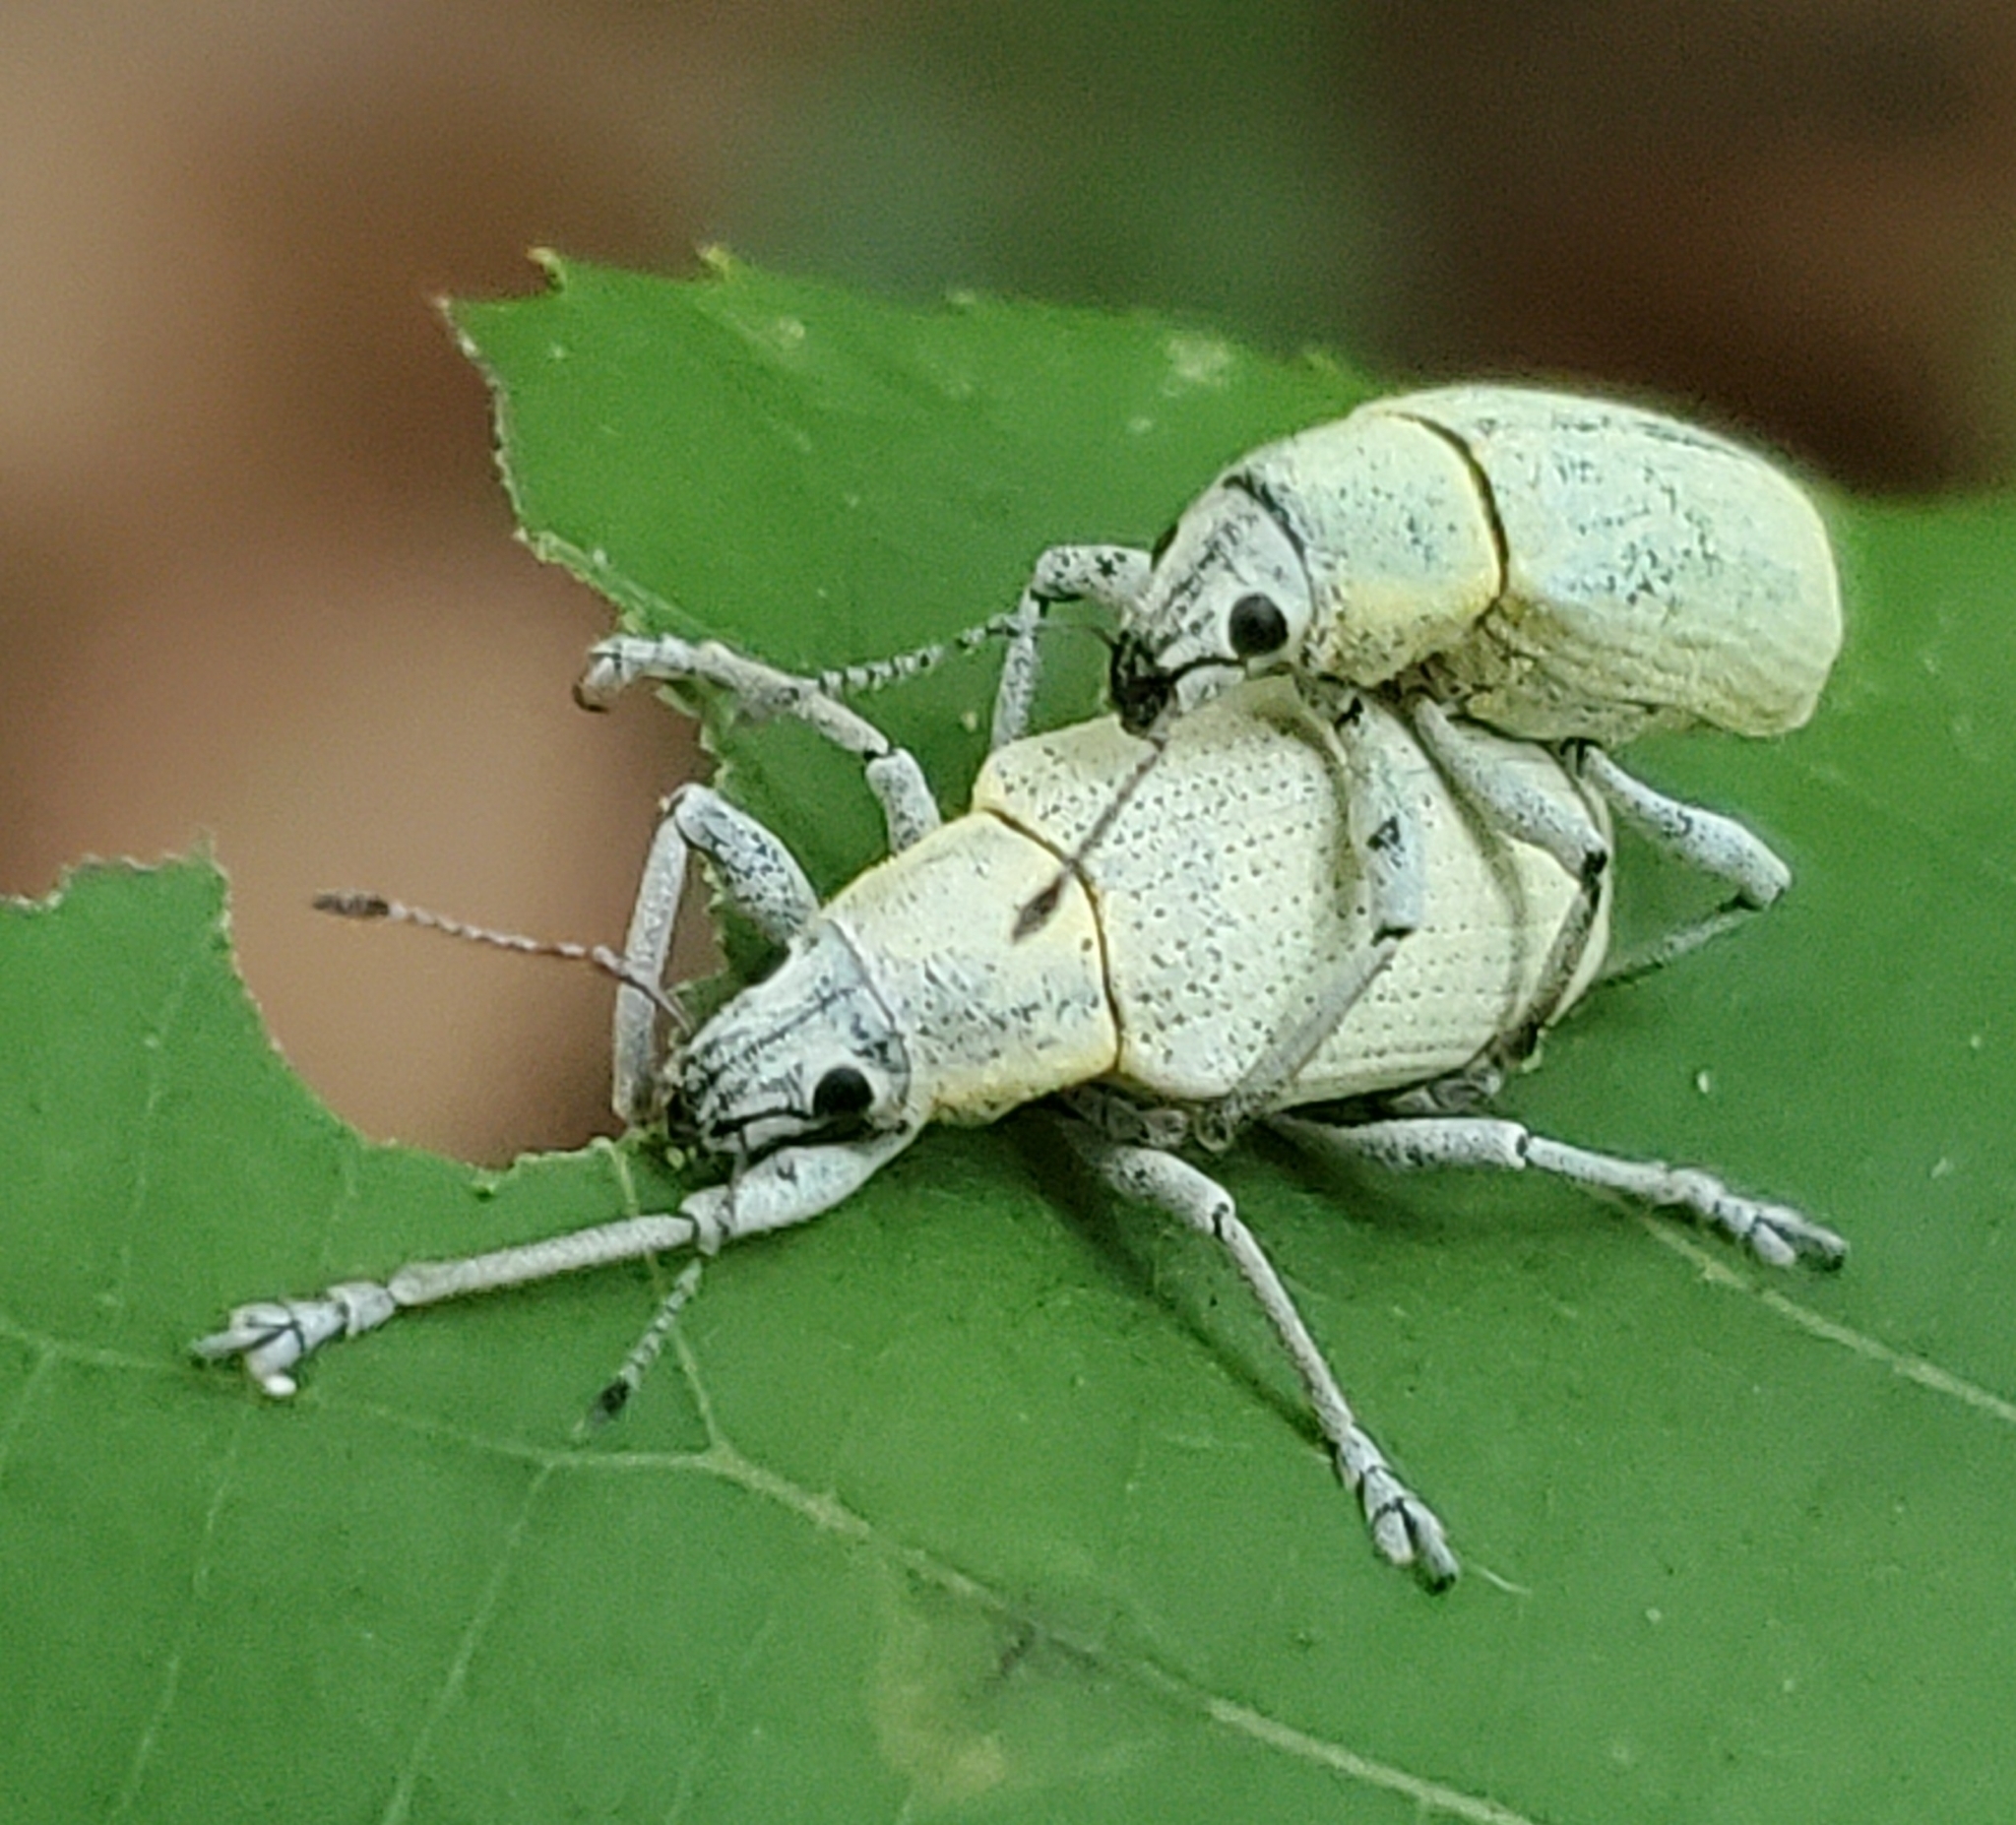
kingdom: Animalia
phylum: Arthropoda
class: Insecta
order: Coleoptera
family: Curculionidae
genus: Pachnaeus
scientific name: Pachnaeus opalus
